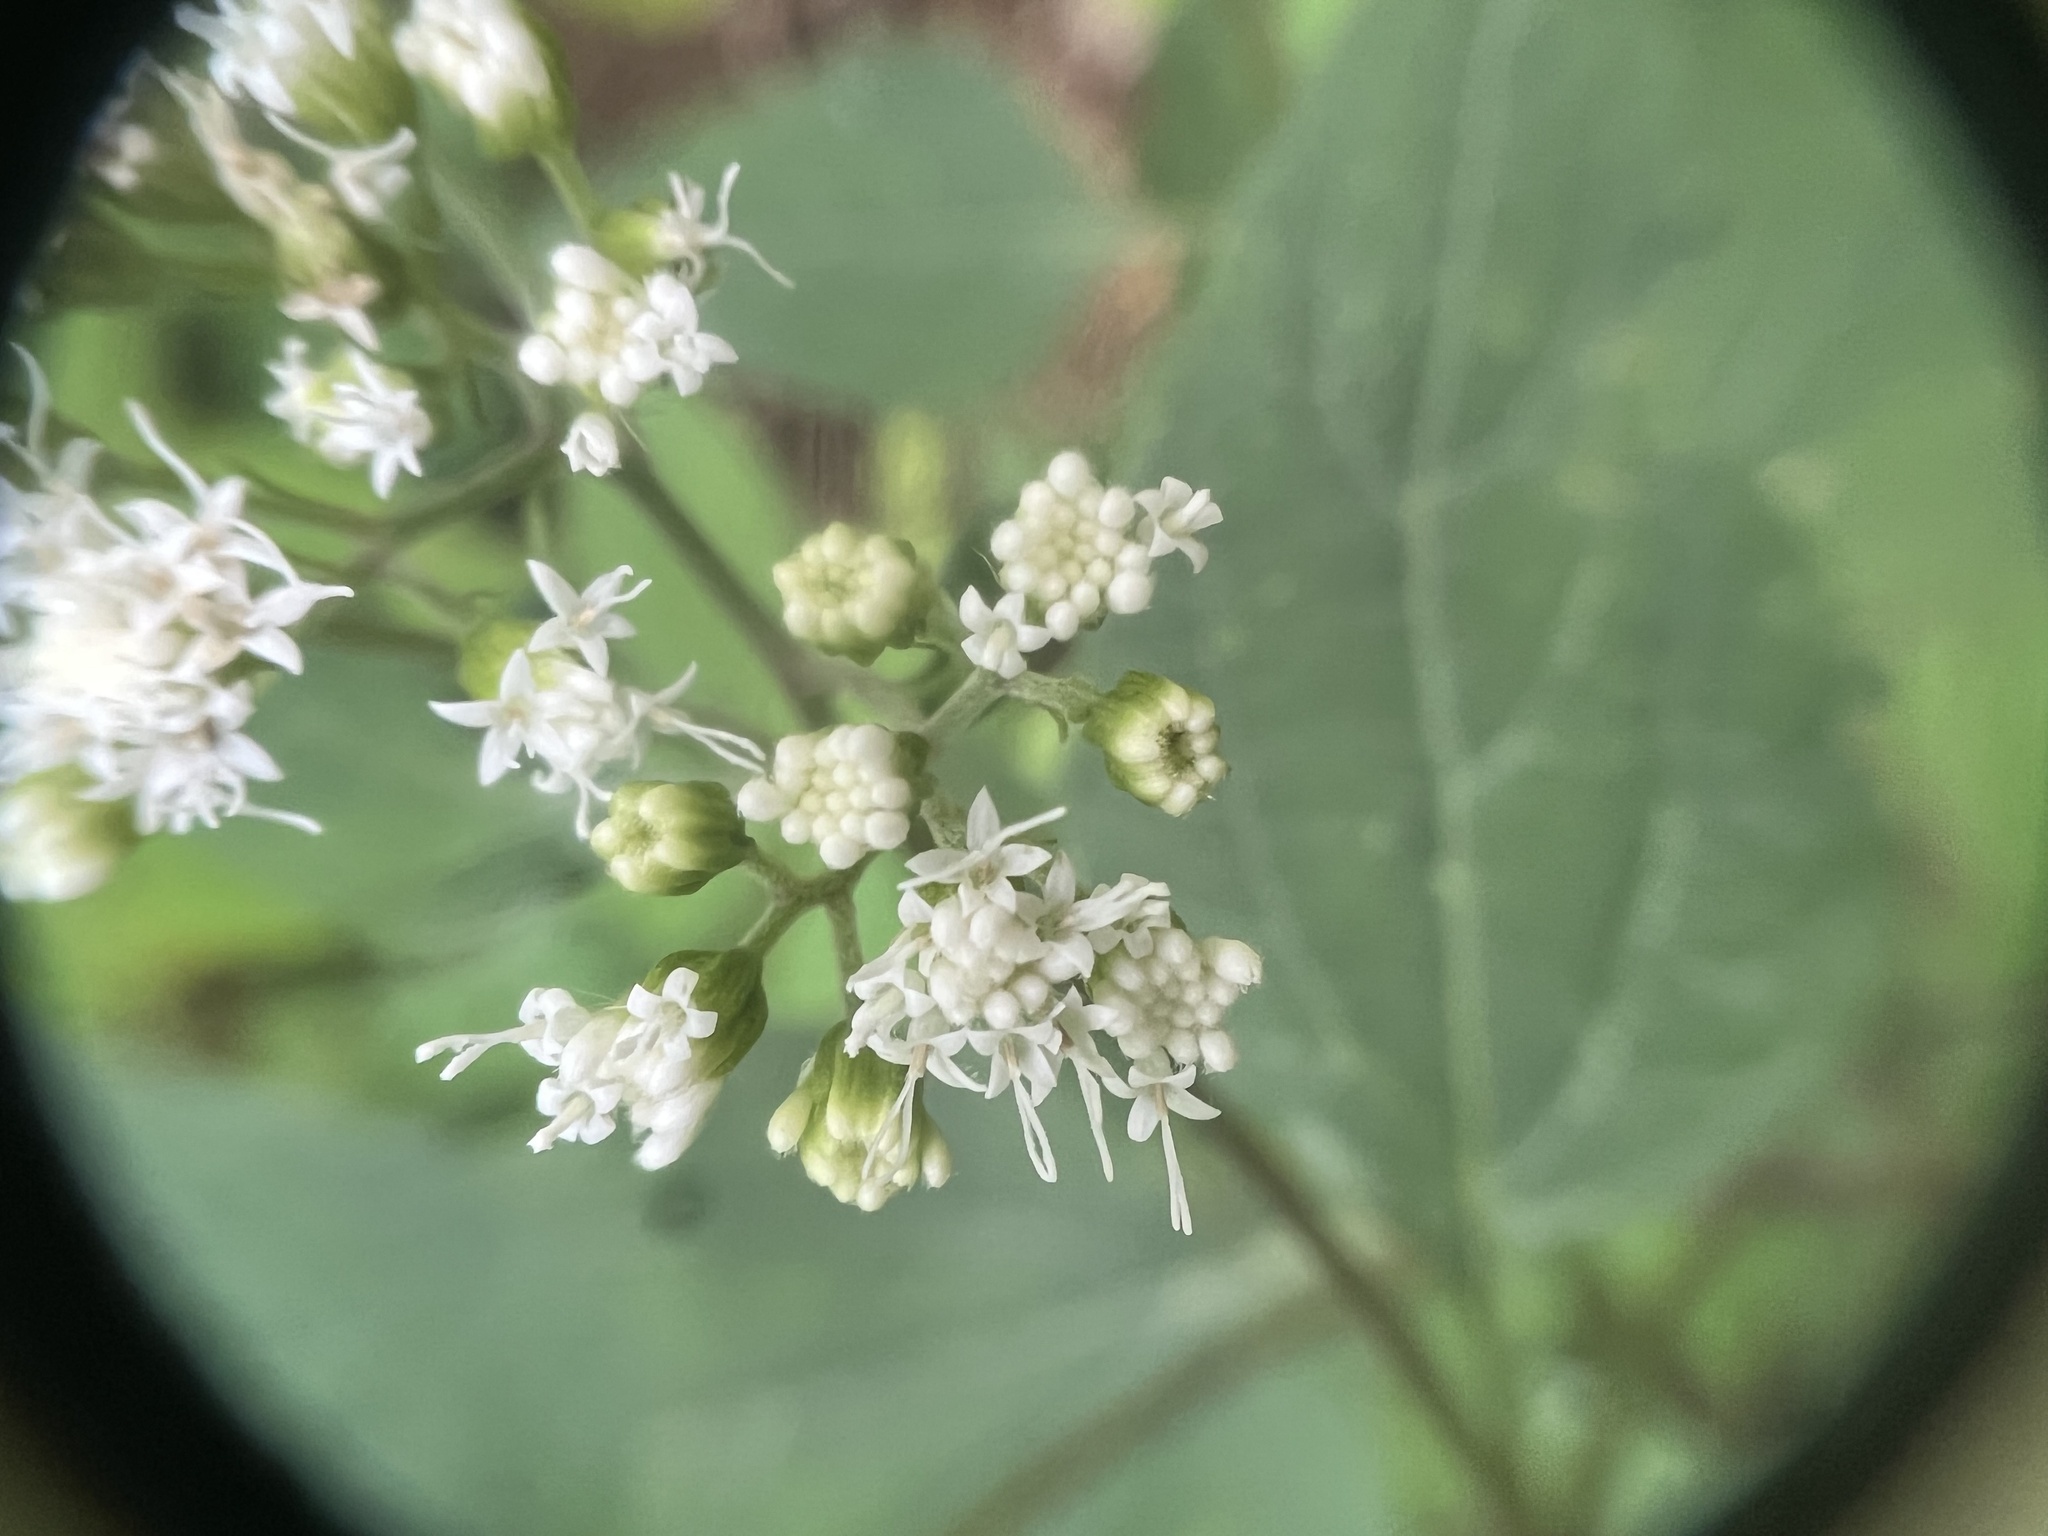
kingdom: Plantae
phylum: Tracheophyta
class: Magnoliopsida
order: Asterales
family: Asteraceae
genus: Ageratina
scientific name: Ageratina altissima
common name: White snakeroot
